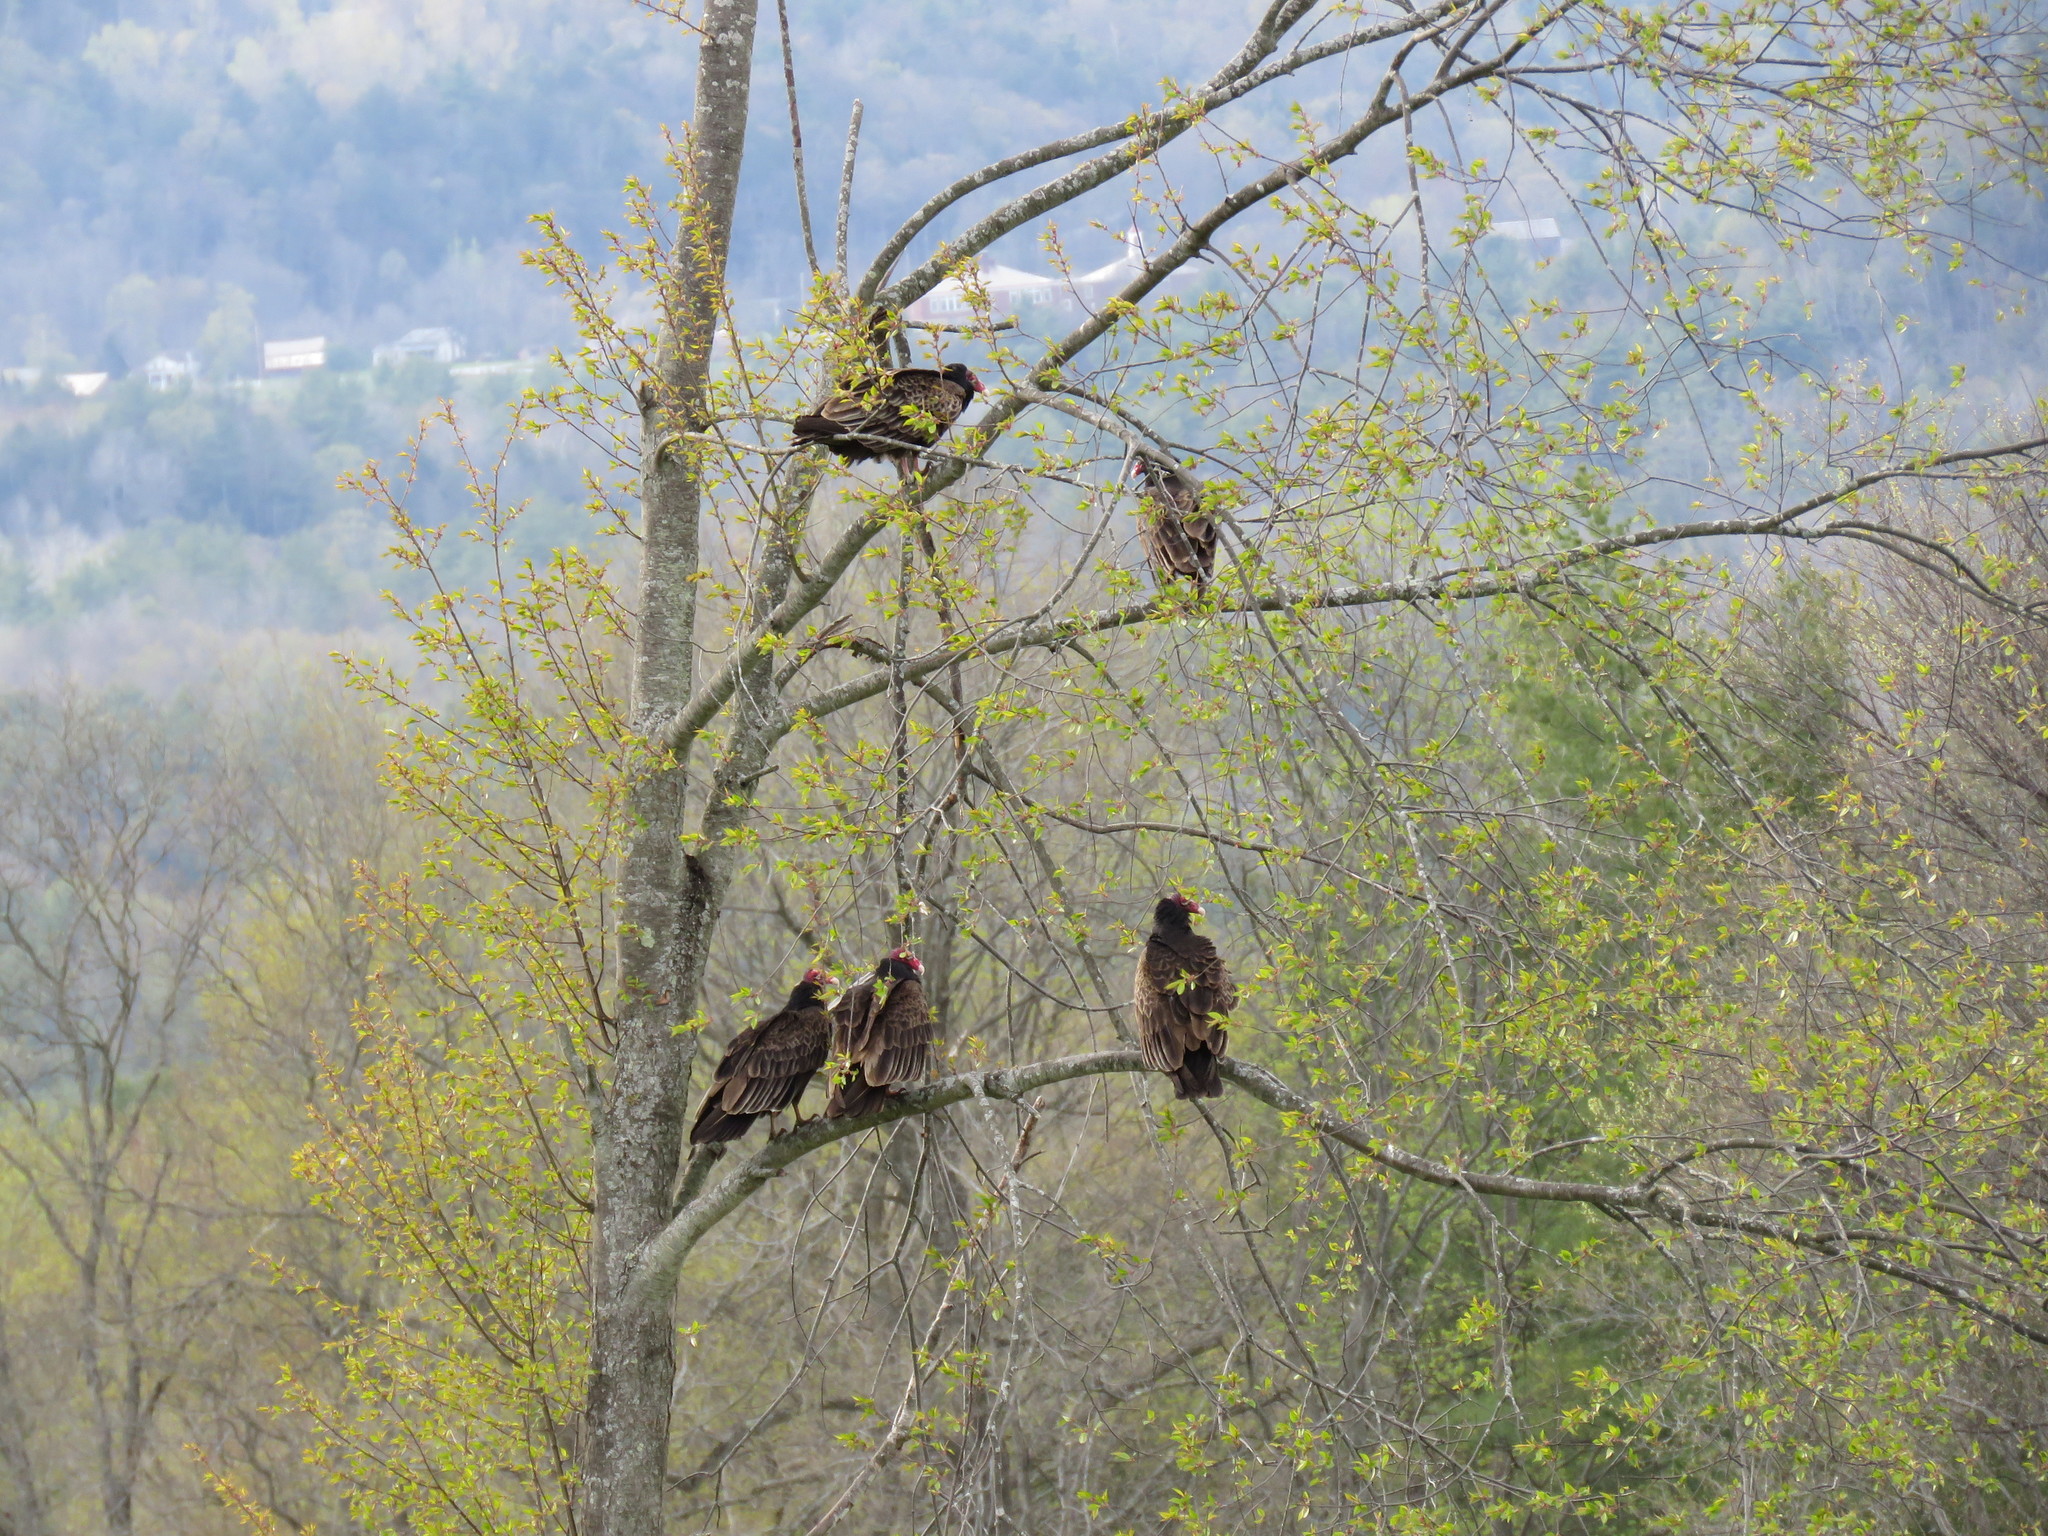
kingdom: Animalia
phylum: Chordata
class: Aves
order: Accipitriformes
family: Cathartidae
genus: Cathartes
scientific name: Cathartes aura
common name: Turkey vulture
